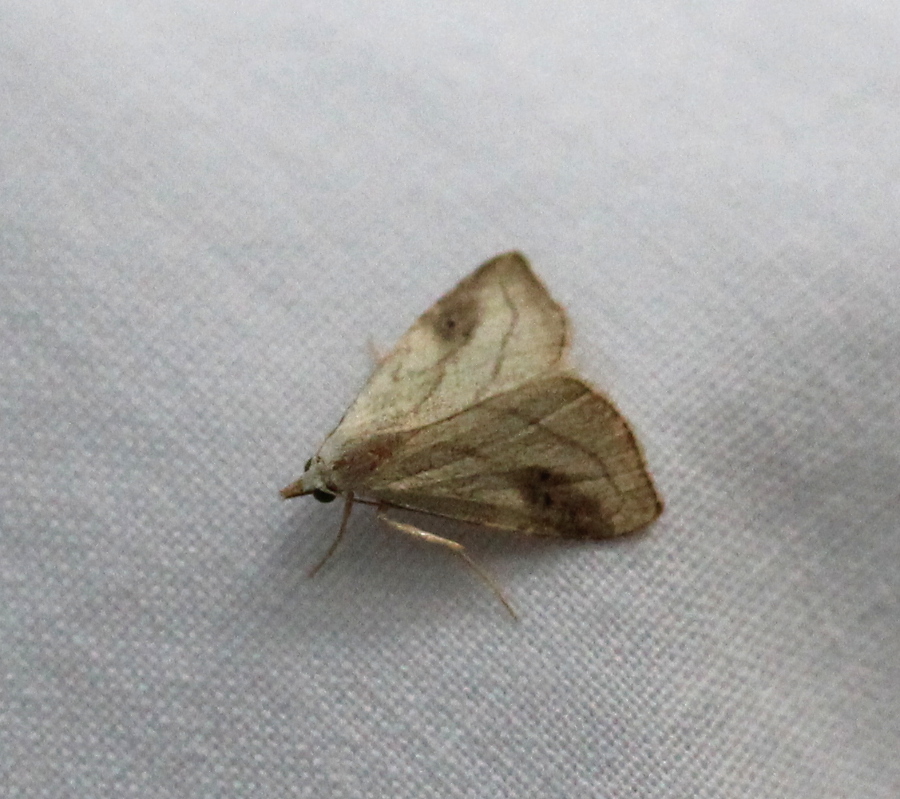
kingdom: Animalia
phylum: Arthropoda
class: Insecta
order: Lepidoptera
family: Erebidae
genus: Rivula
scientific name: Rivula propinqualis
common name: Spotted grass moth
